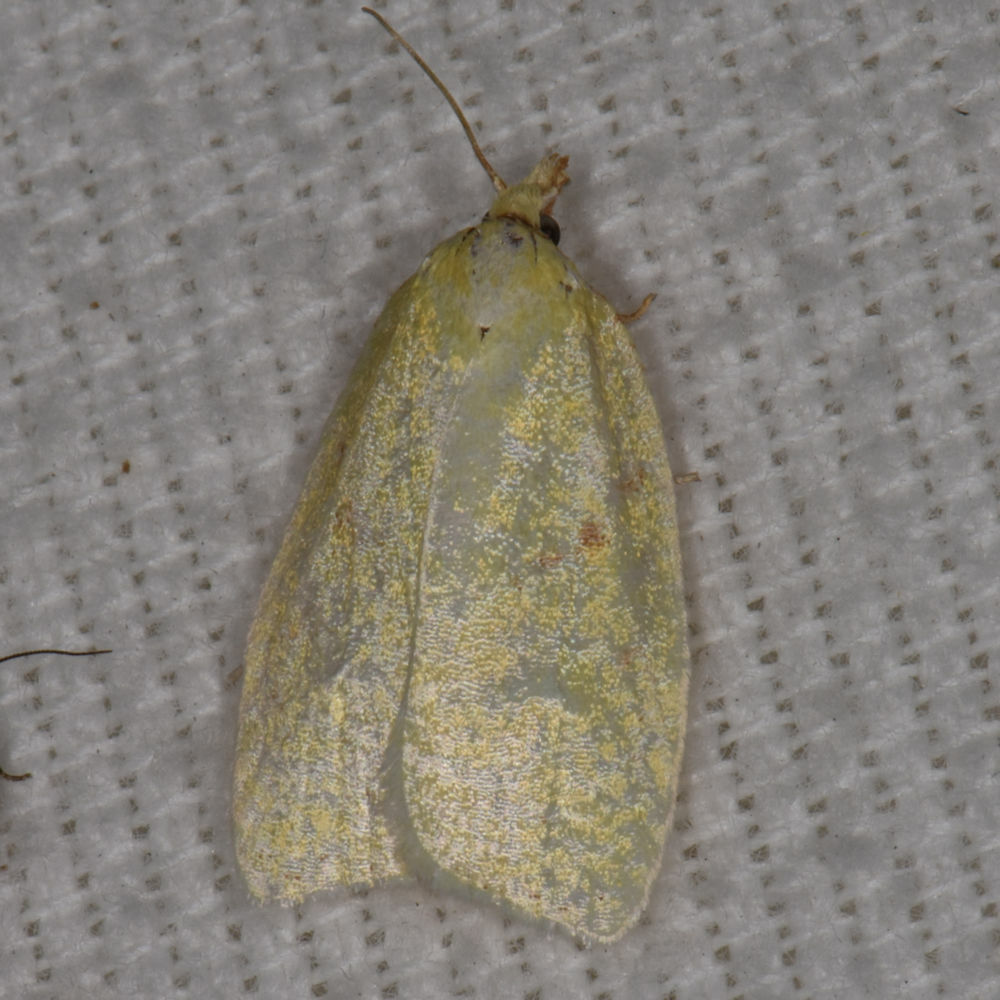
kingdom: Animalia
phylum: Arthropoda
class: Insecta
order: Lepidoptera
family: Crambidae
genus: Pantographa
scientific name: Pantographa limata
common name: Basswood leafroller moth
